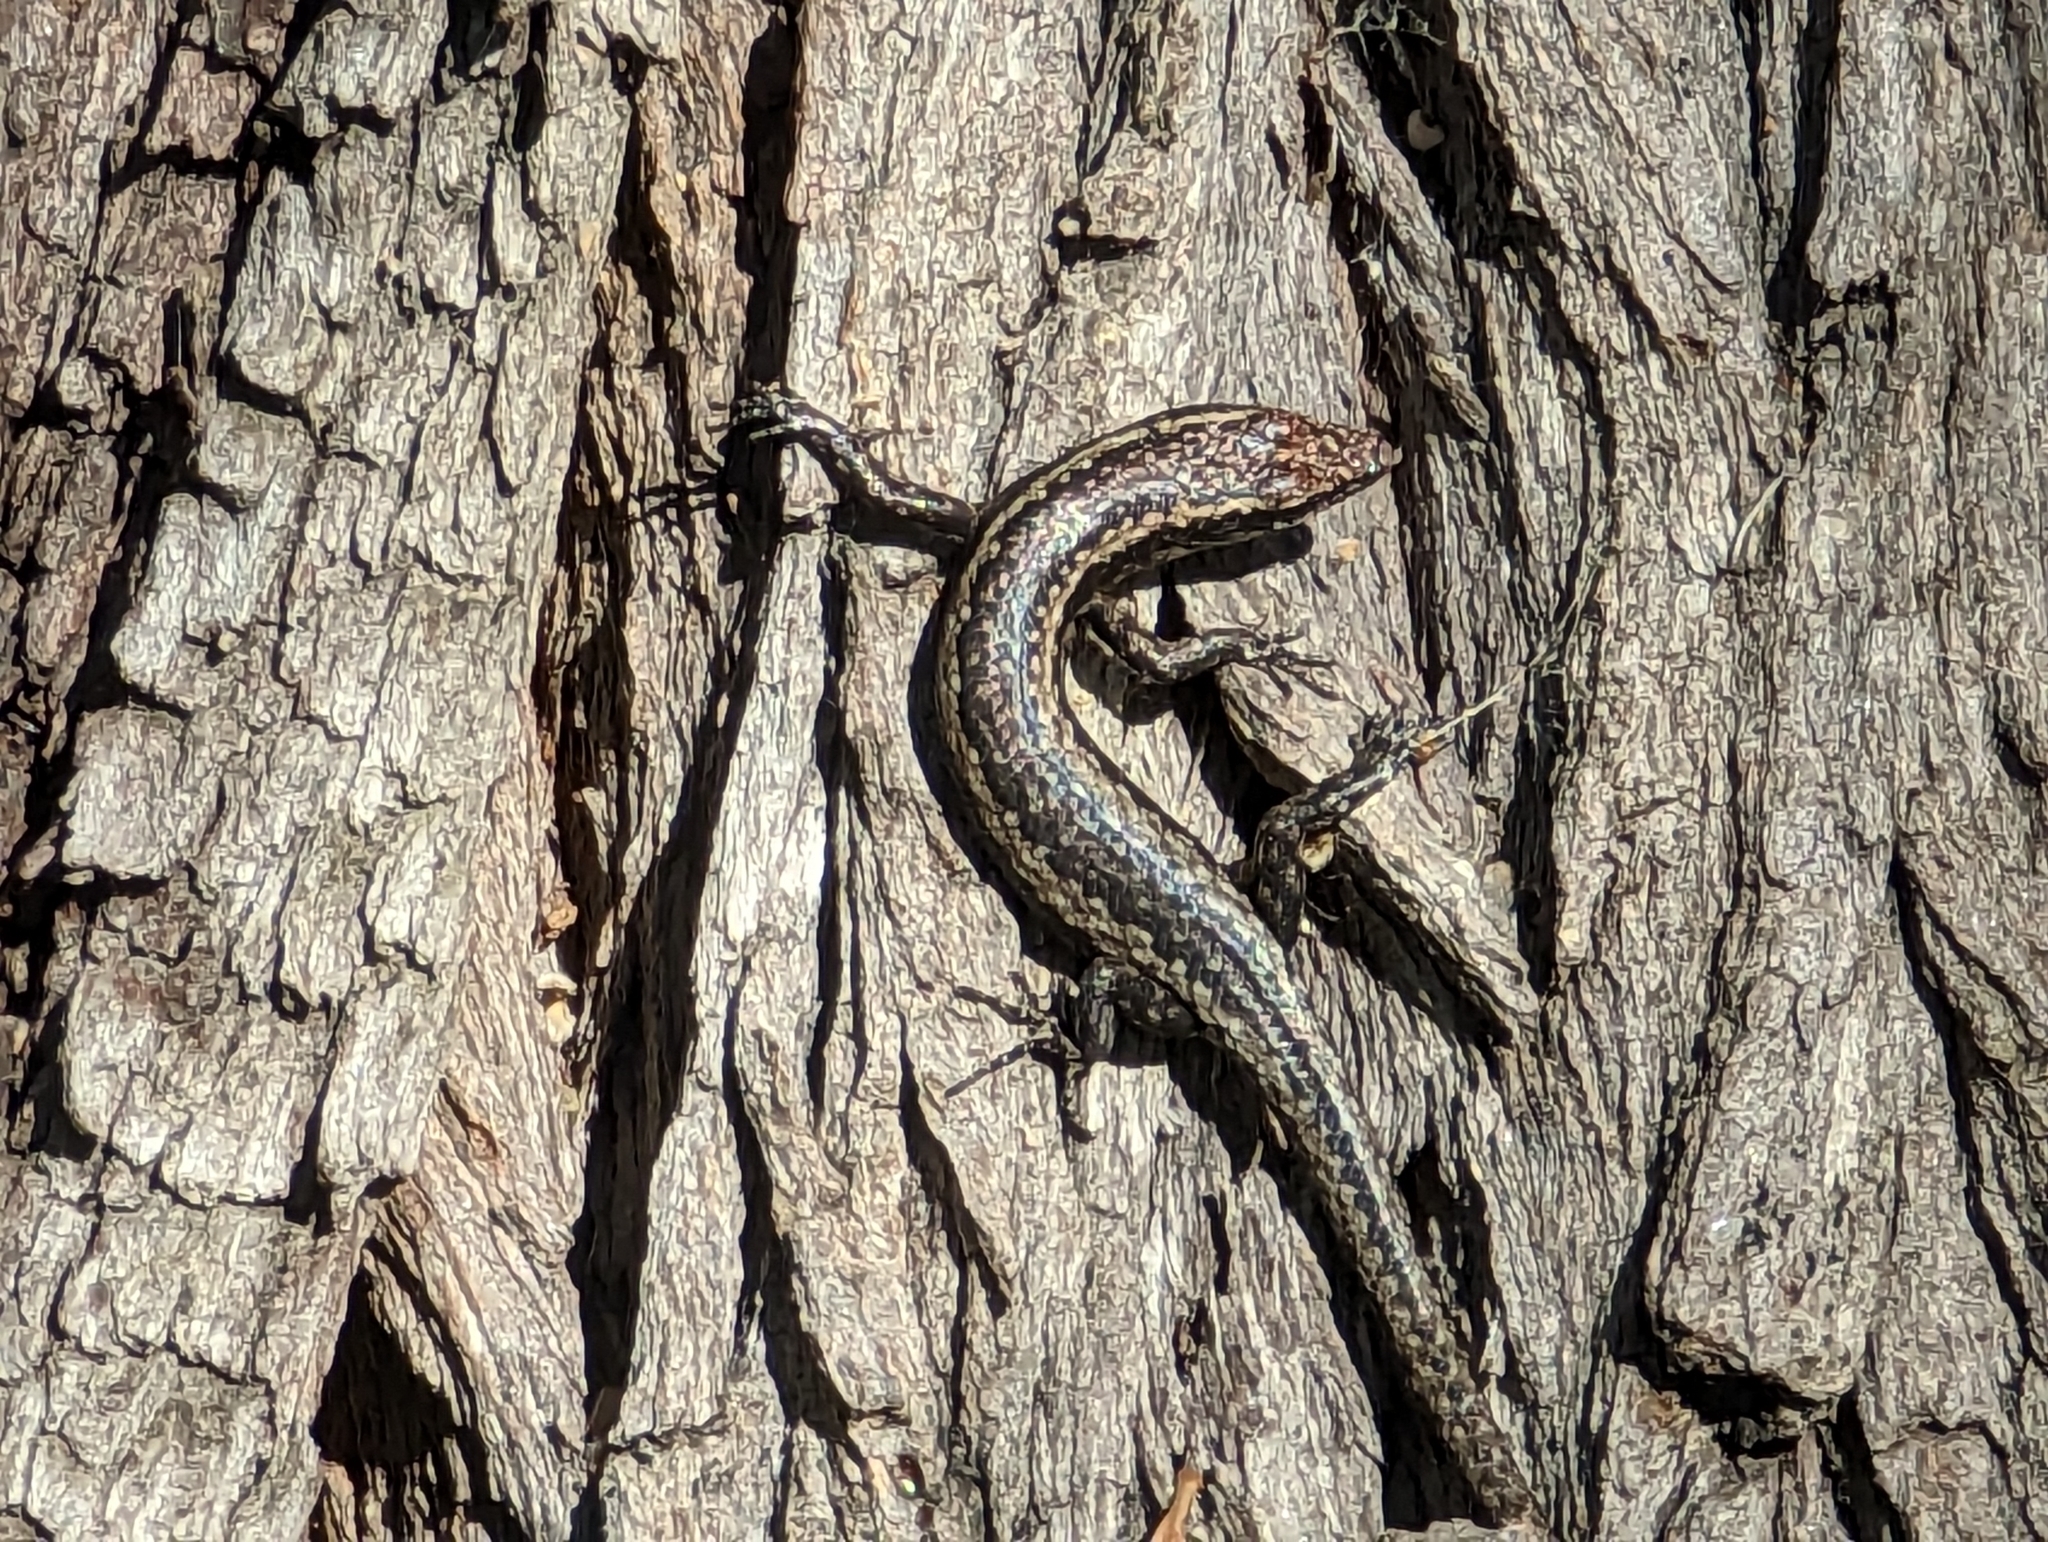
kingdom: Animalia
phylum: Chordata
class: Squamata
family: Scincidae
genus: Cryptoblepharus
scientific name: Cryptoblepharus buchananii
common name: Buchanan's snake-eyed skink
